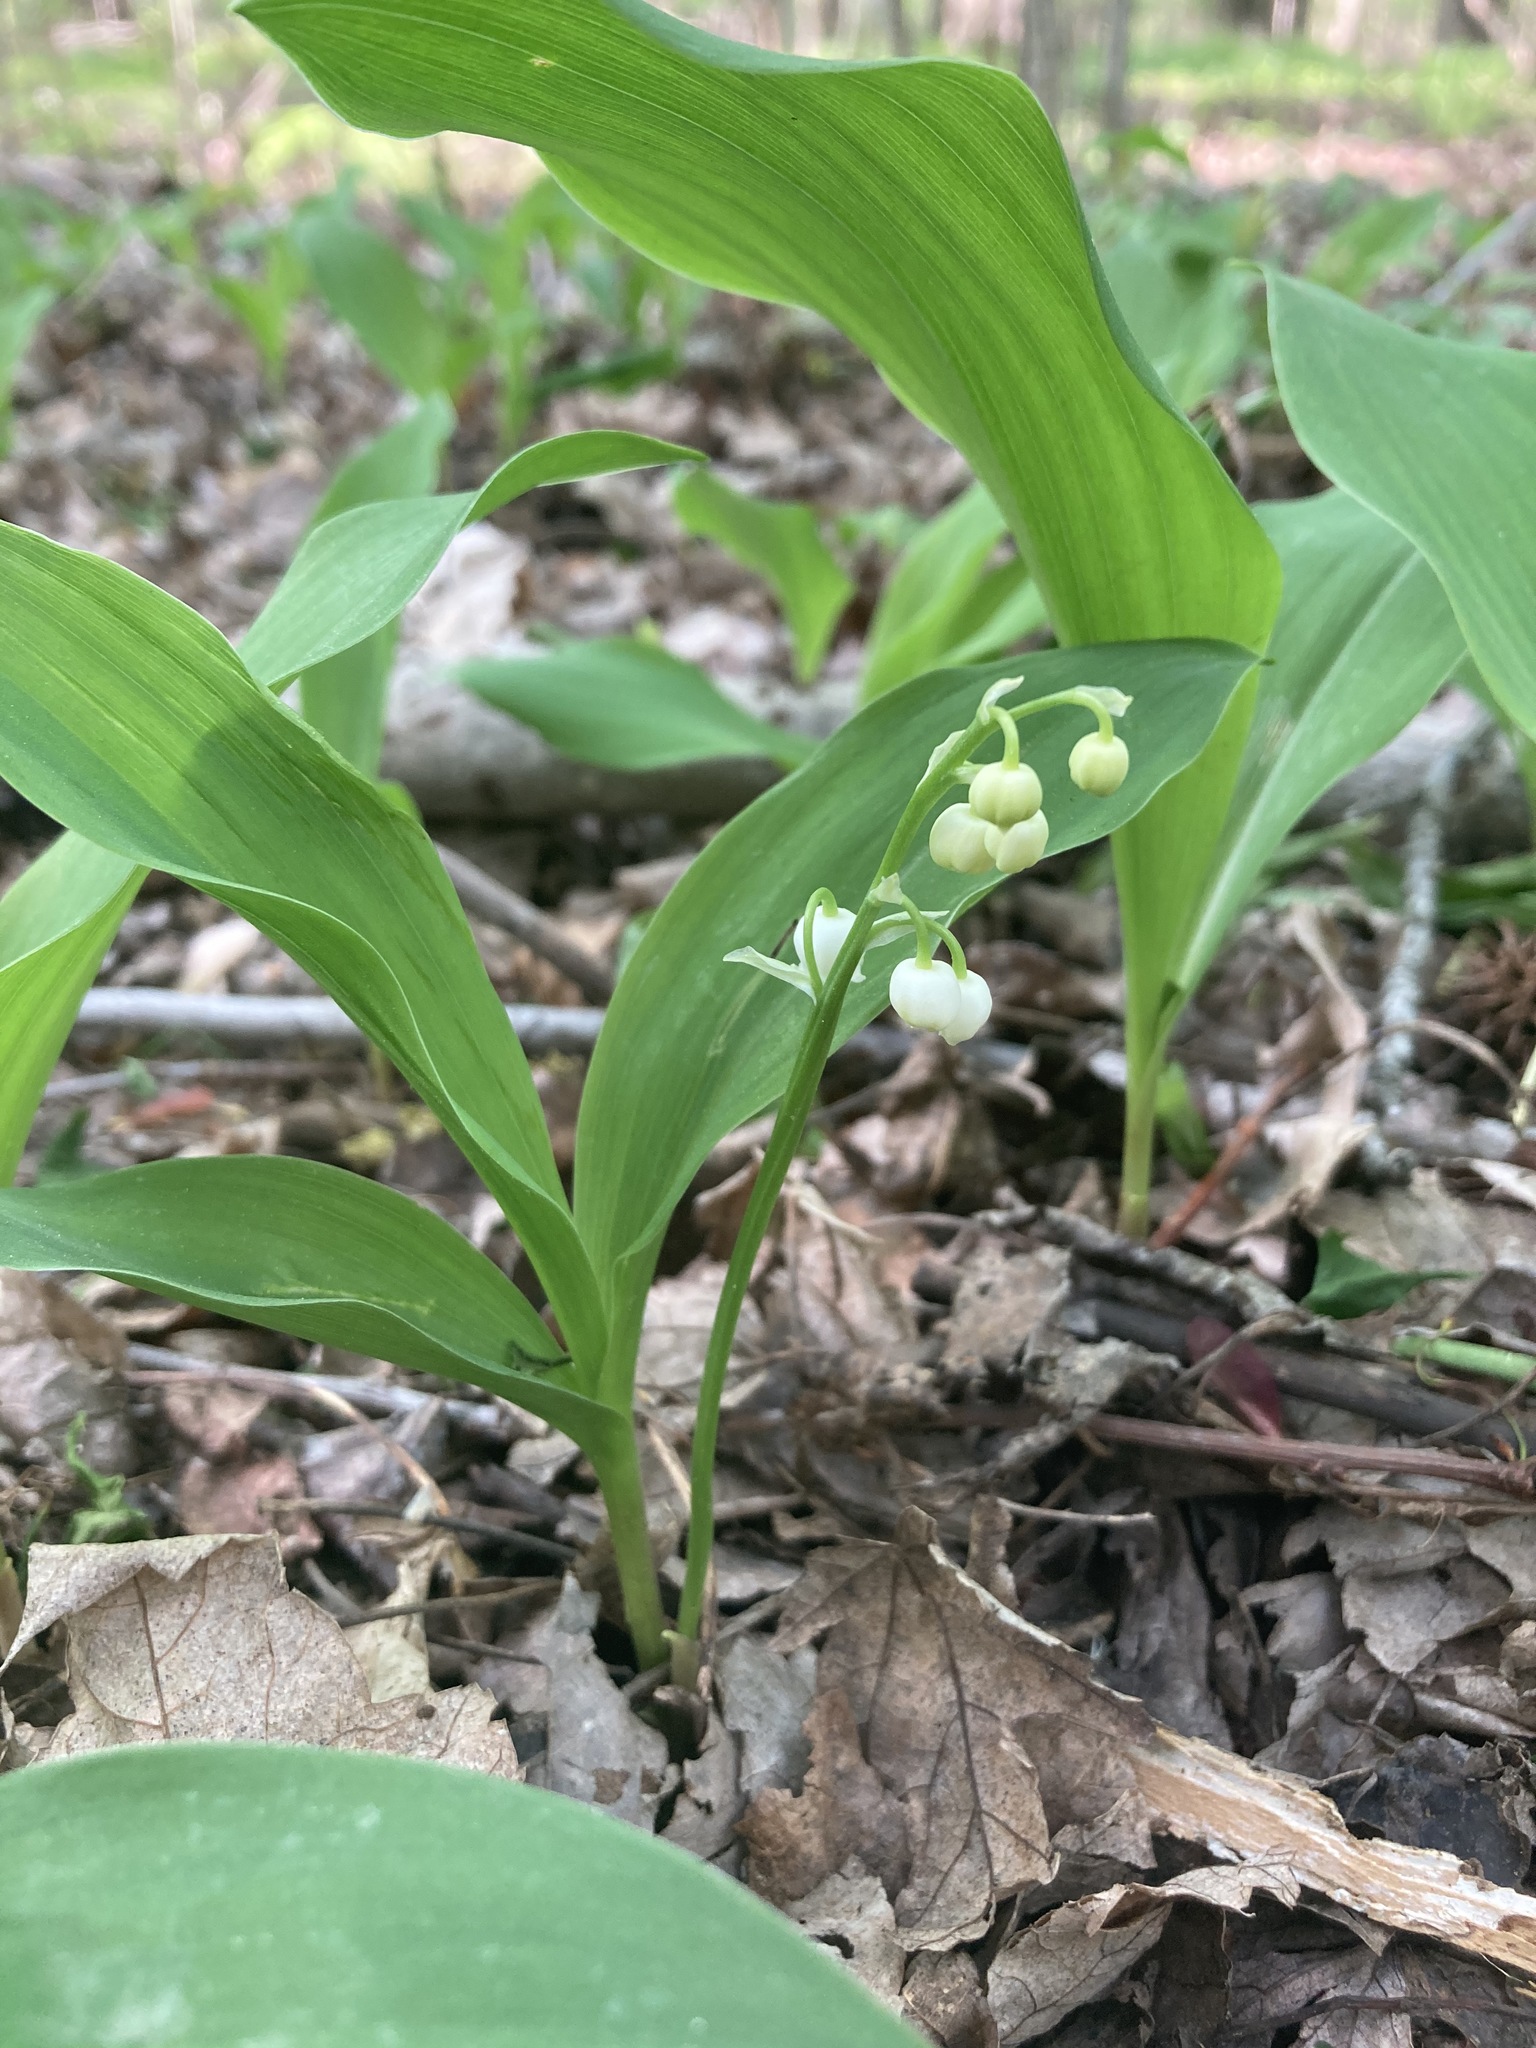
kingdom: Plantae
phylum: Tracheophyta
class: Liliopsida
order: Asparagales
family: Asparagaceae
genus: Convallaria
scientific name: Convallaria majalis
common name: Lily-of-the-valley
